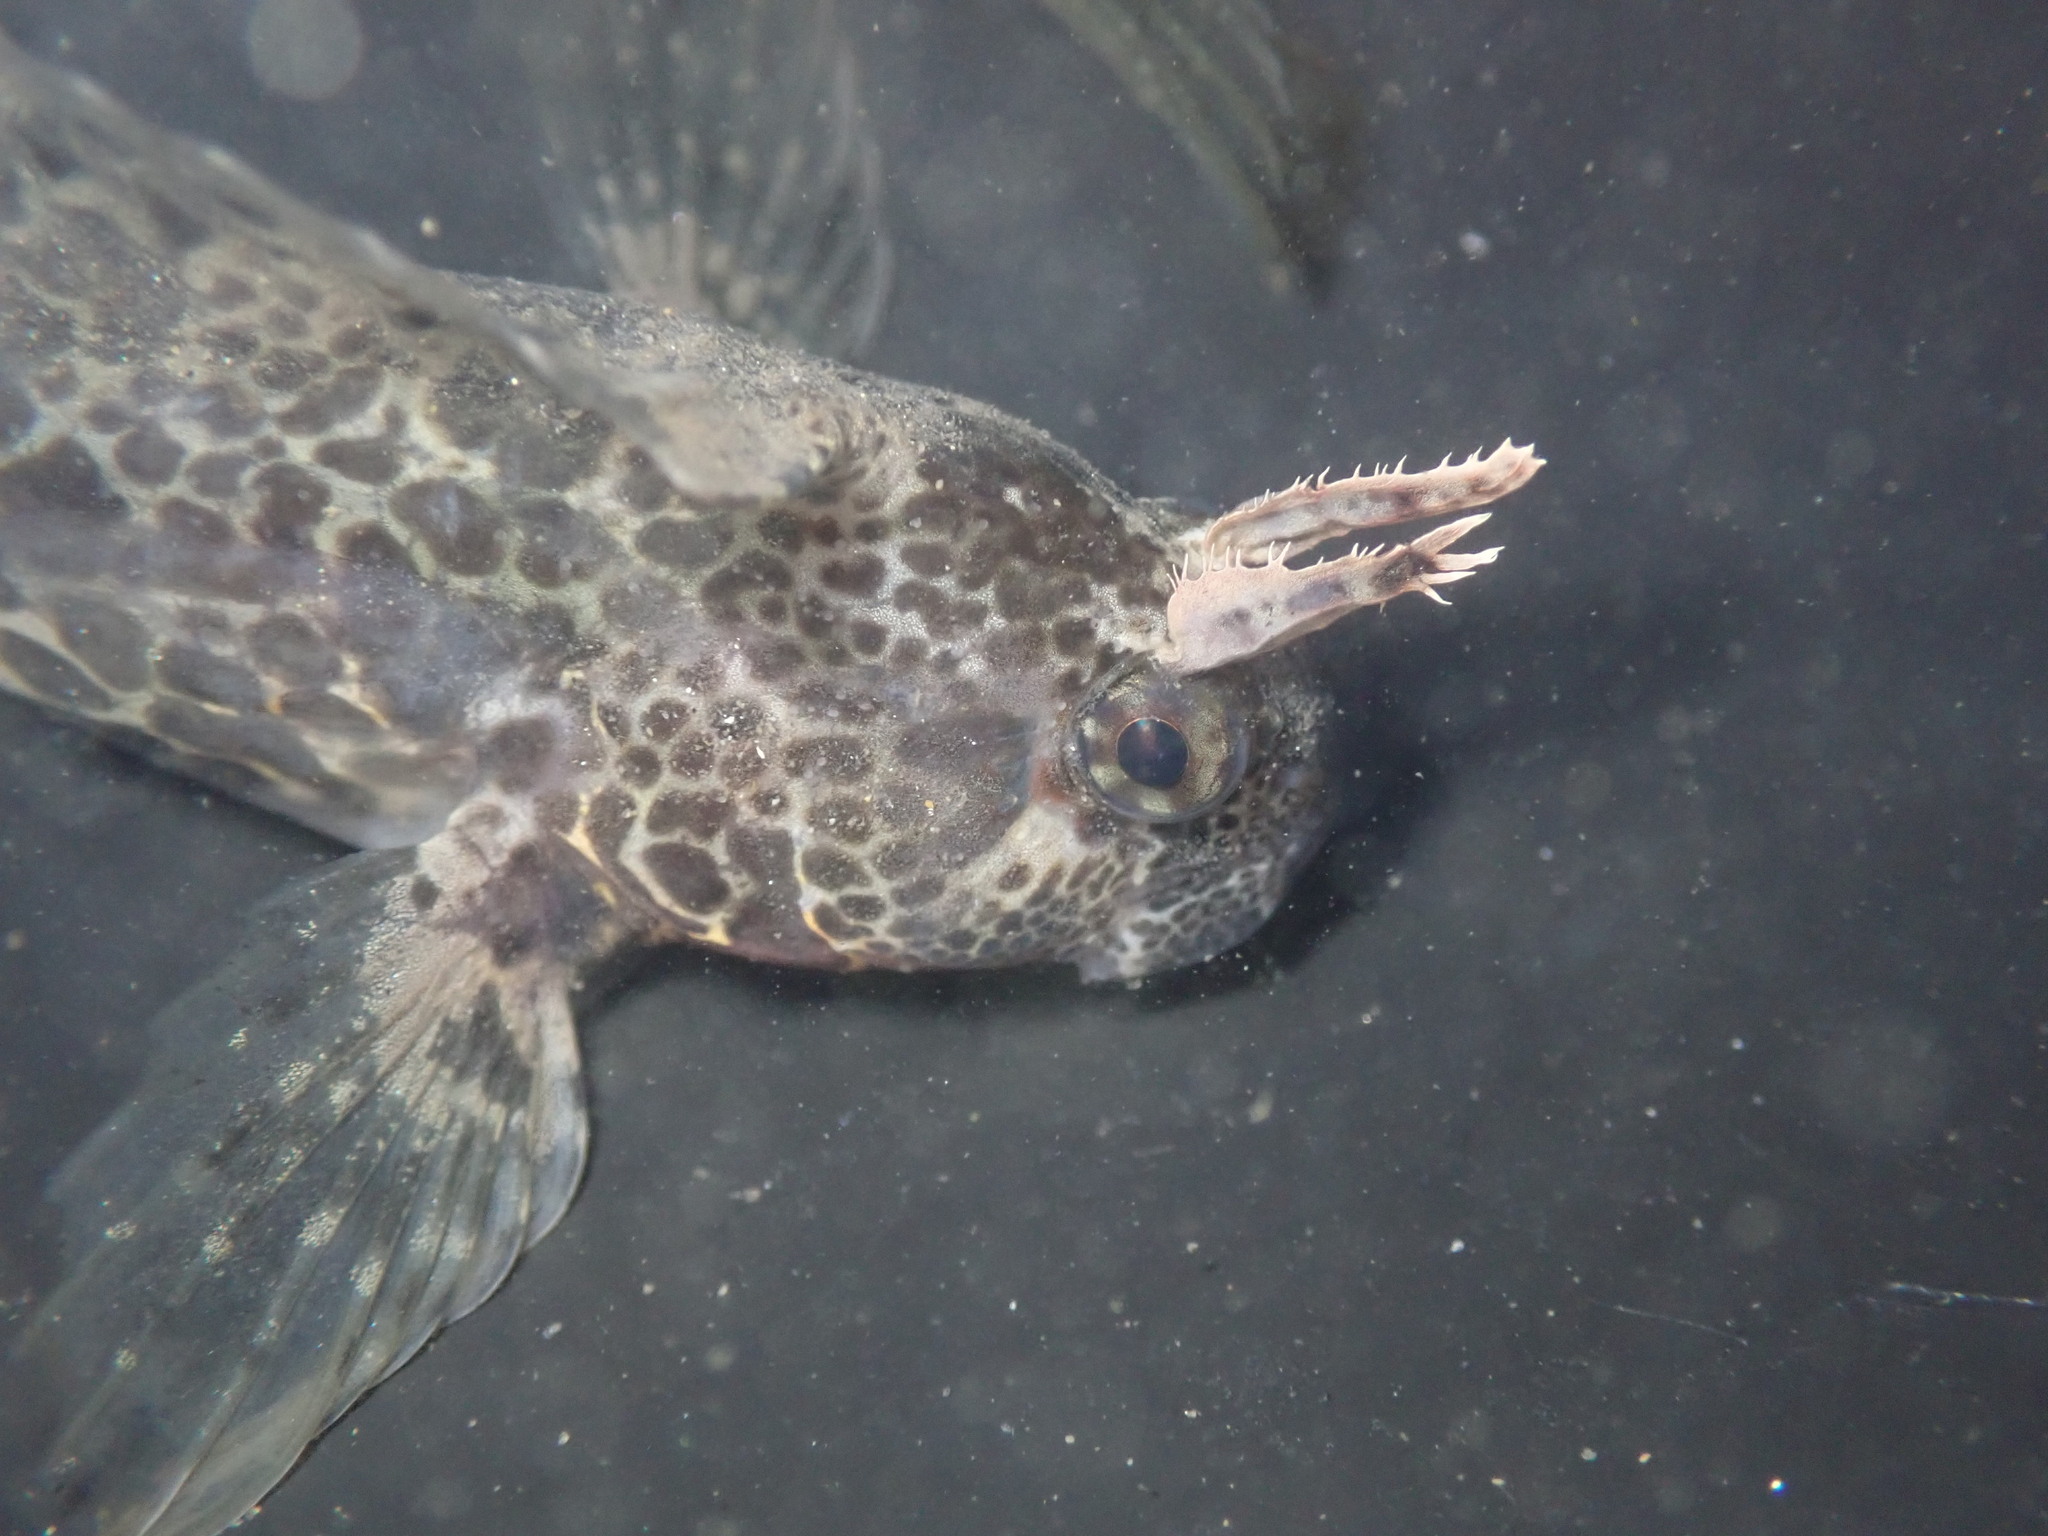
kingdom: Animalia
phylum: Chordata
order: Perciformes
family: Blenniidae
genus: Hypsoblennius
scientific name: Hypsoblennius gentilis
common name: Bay blenny
